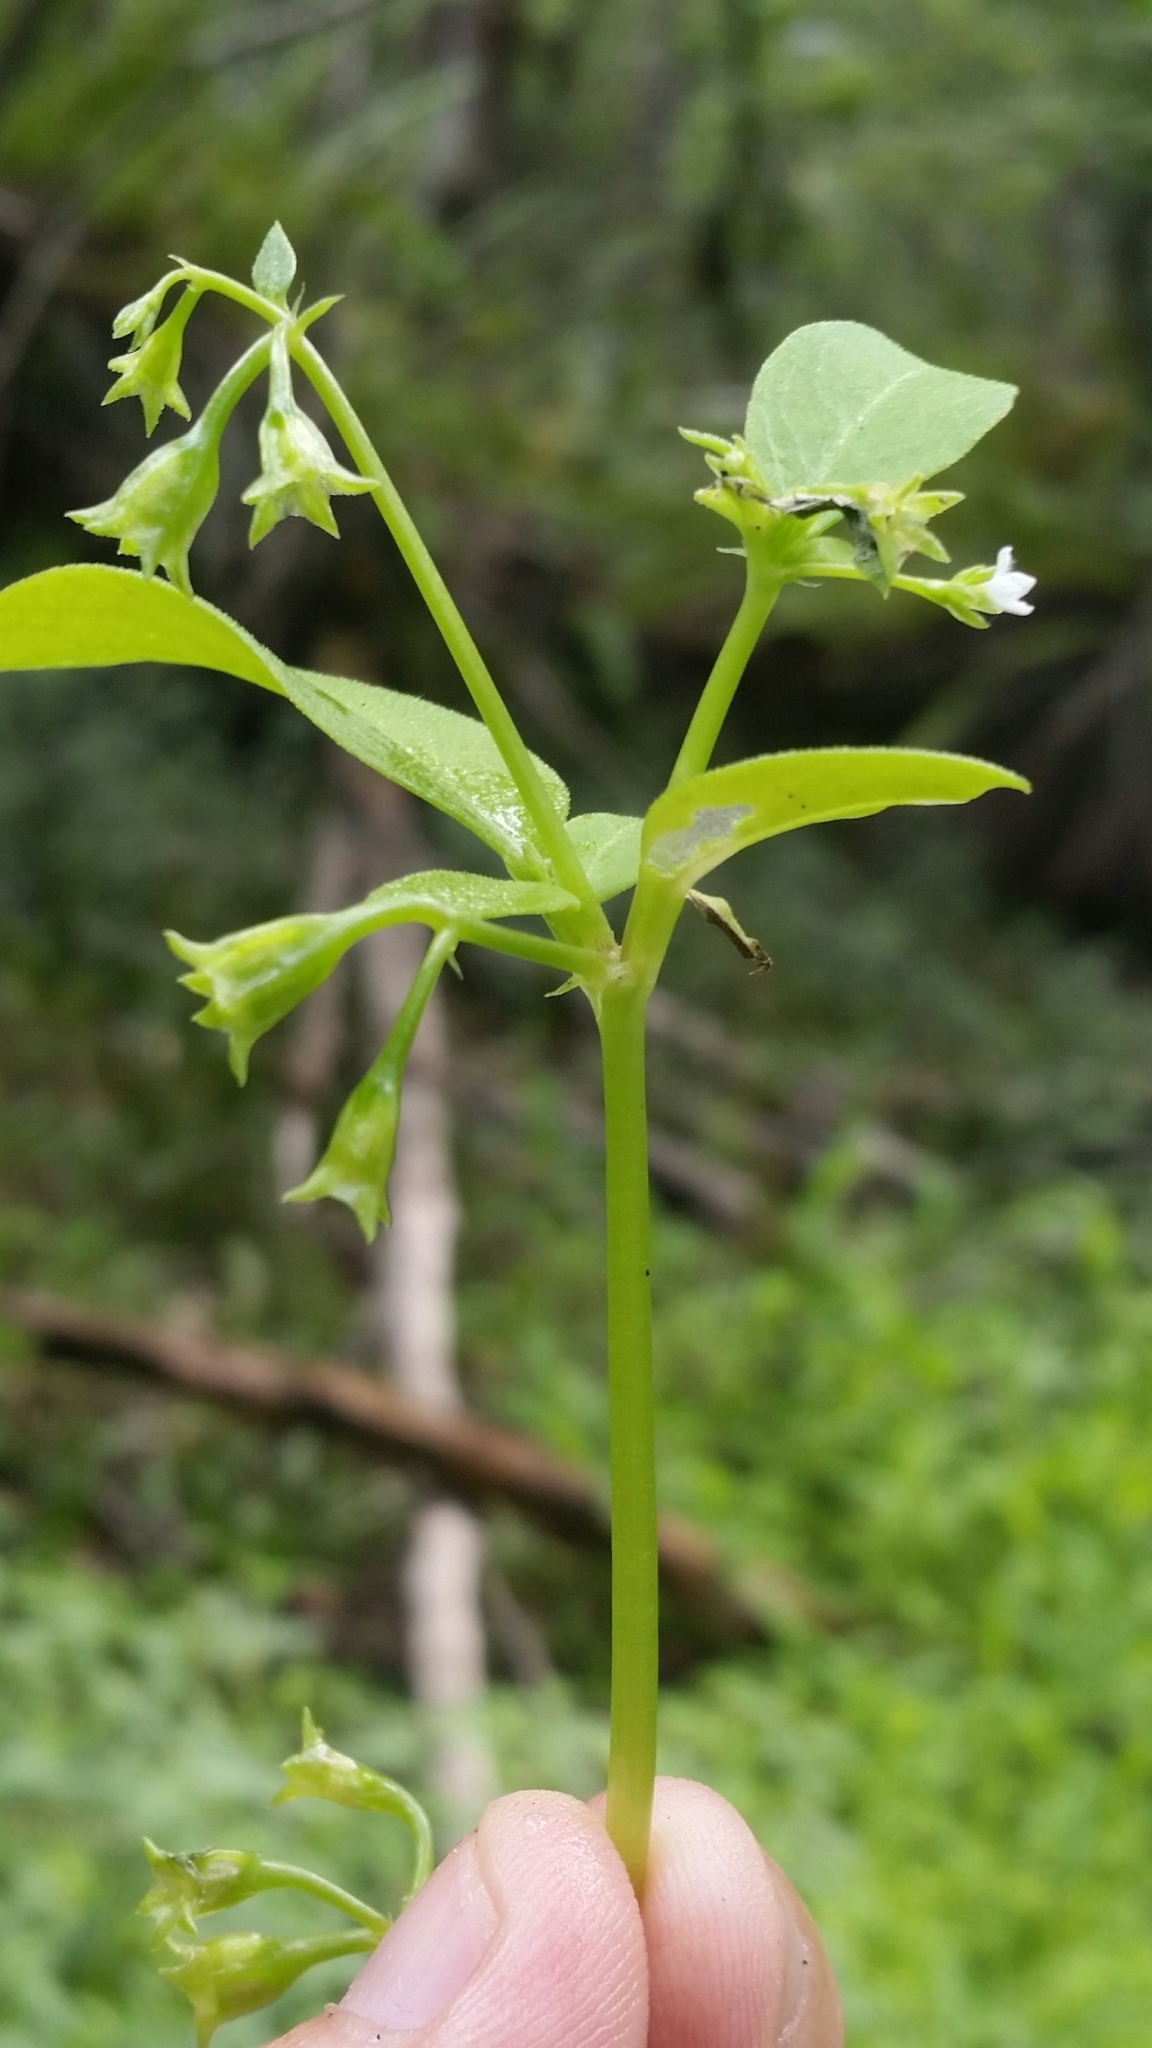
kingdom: Plantae
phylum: Tracheophyta
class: Magnoliopsida
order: Gentianales
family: Rubiaceae
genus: Pentodon
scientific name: Pentodon pentandrus
